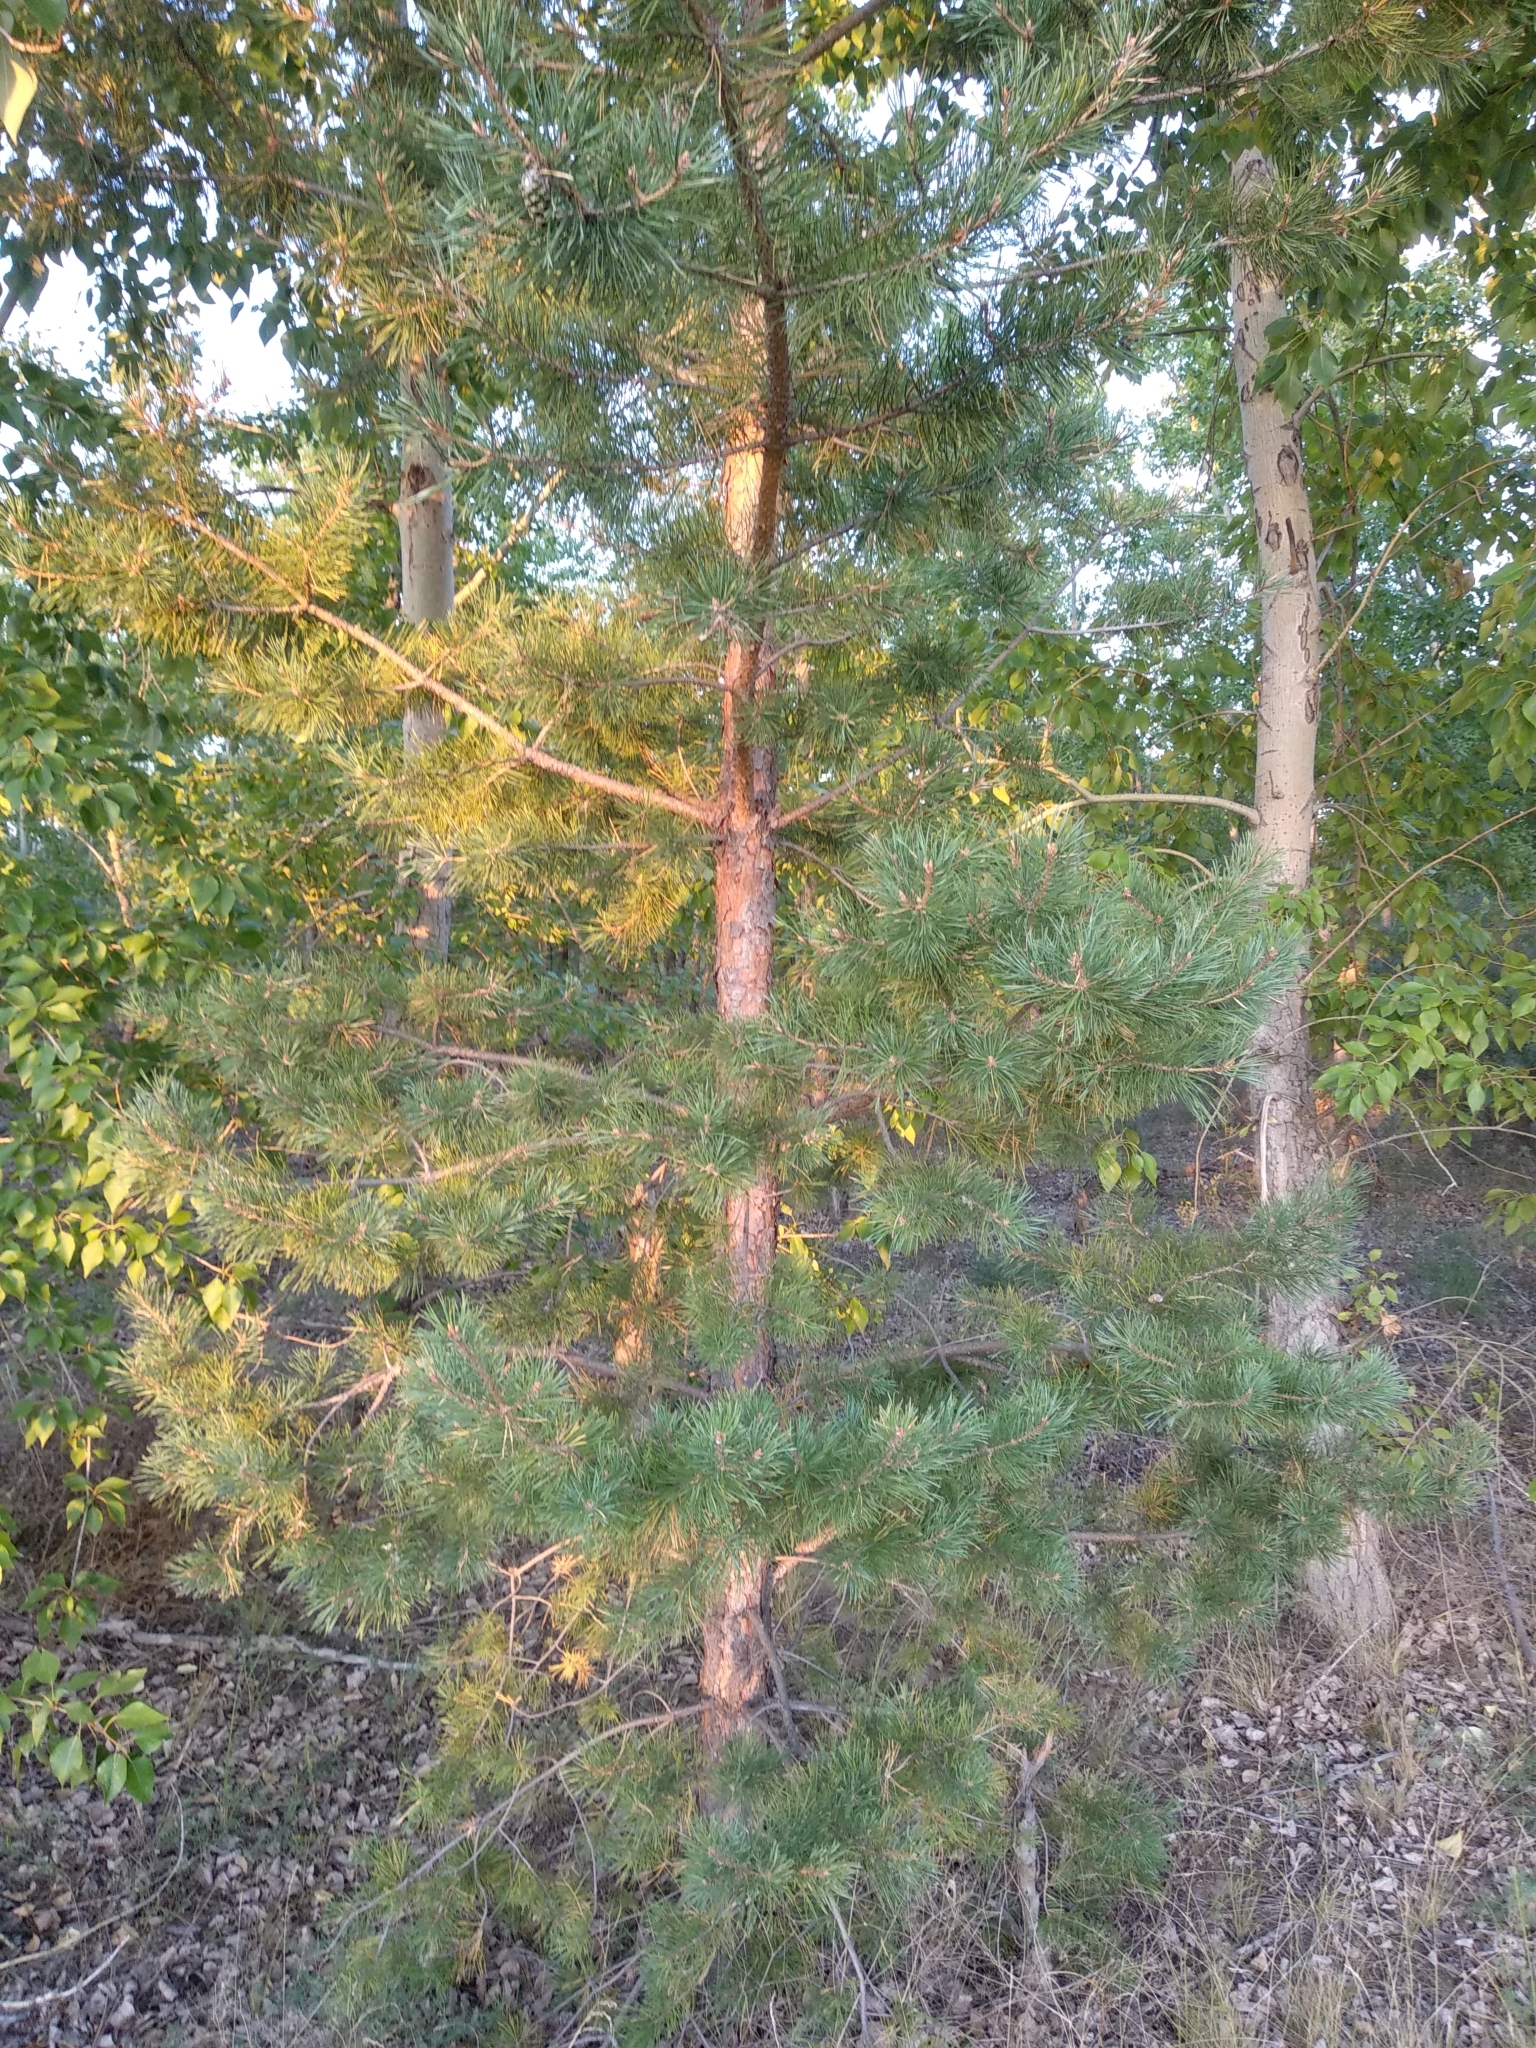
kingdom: Plantae
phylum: Tracheophyta
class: Pinopsida
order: Pinales
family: Pinaceae
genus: Pinus
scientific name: Pinus sylvestris
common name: Scots pine
